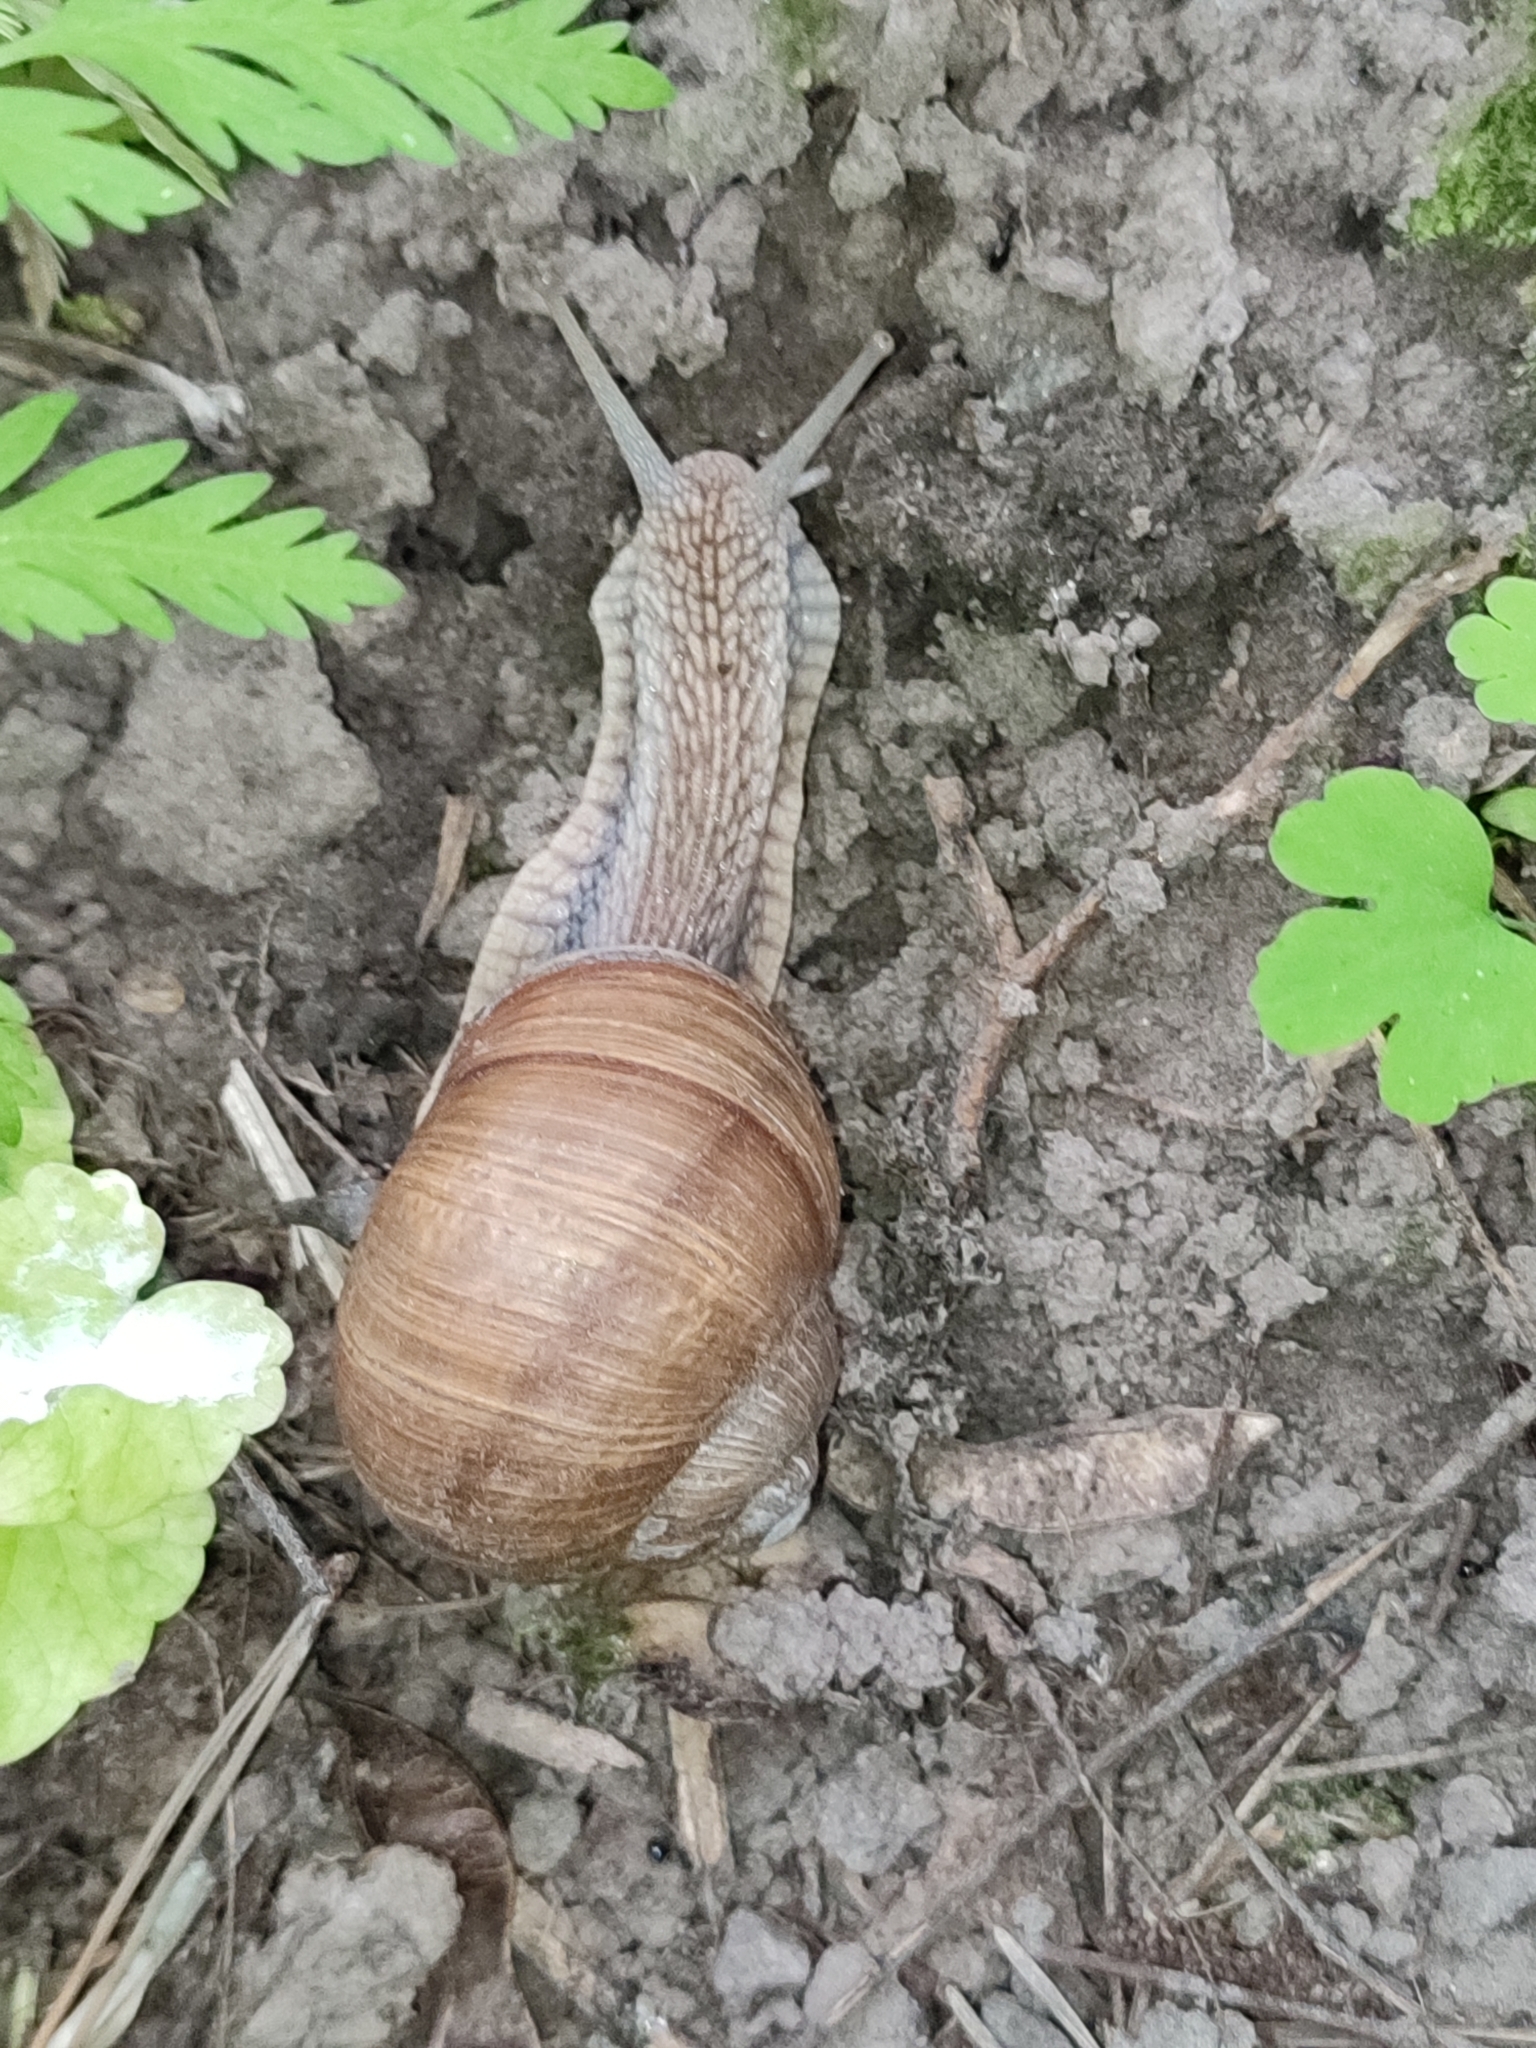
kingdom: Animalia
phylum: Mollusca
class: Gastropoda
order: Stylommatophora
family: Helicidae
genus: Helix
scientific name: Helix pomatia
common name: Roman snail
